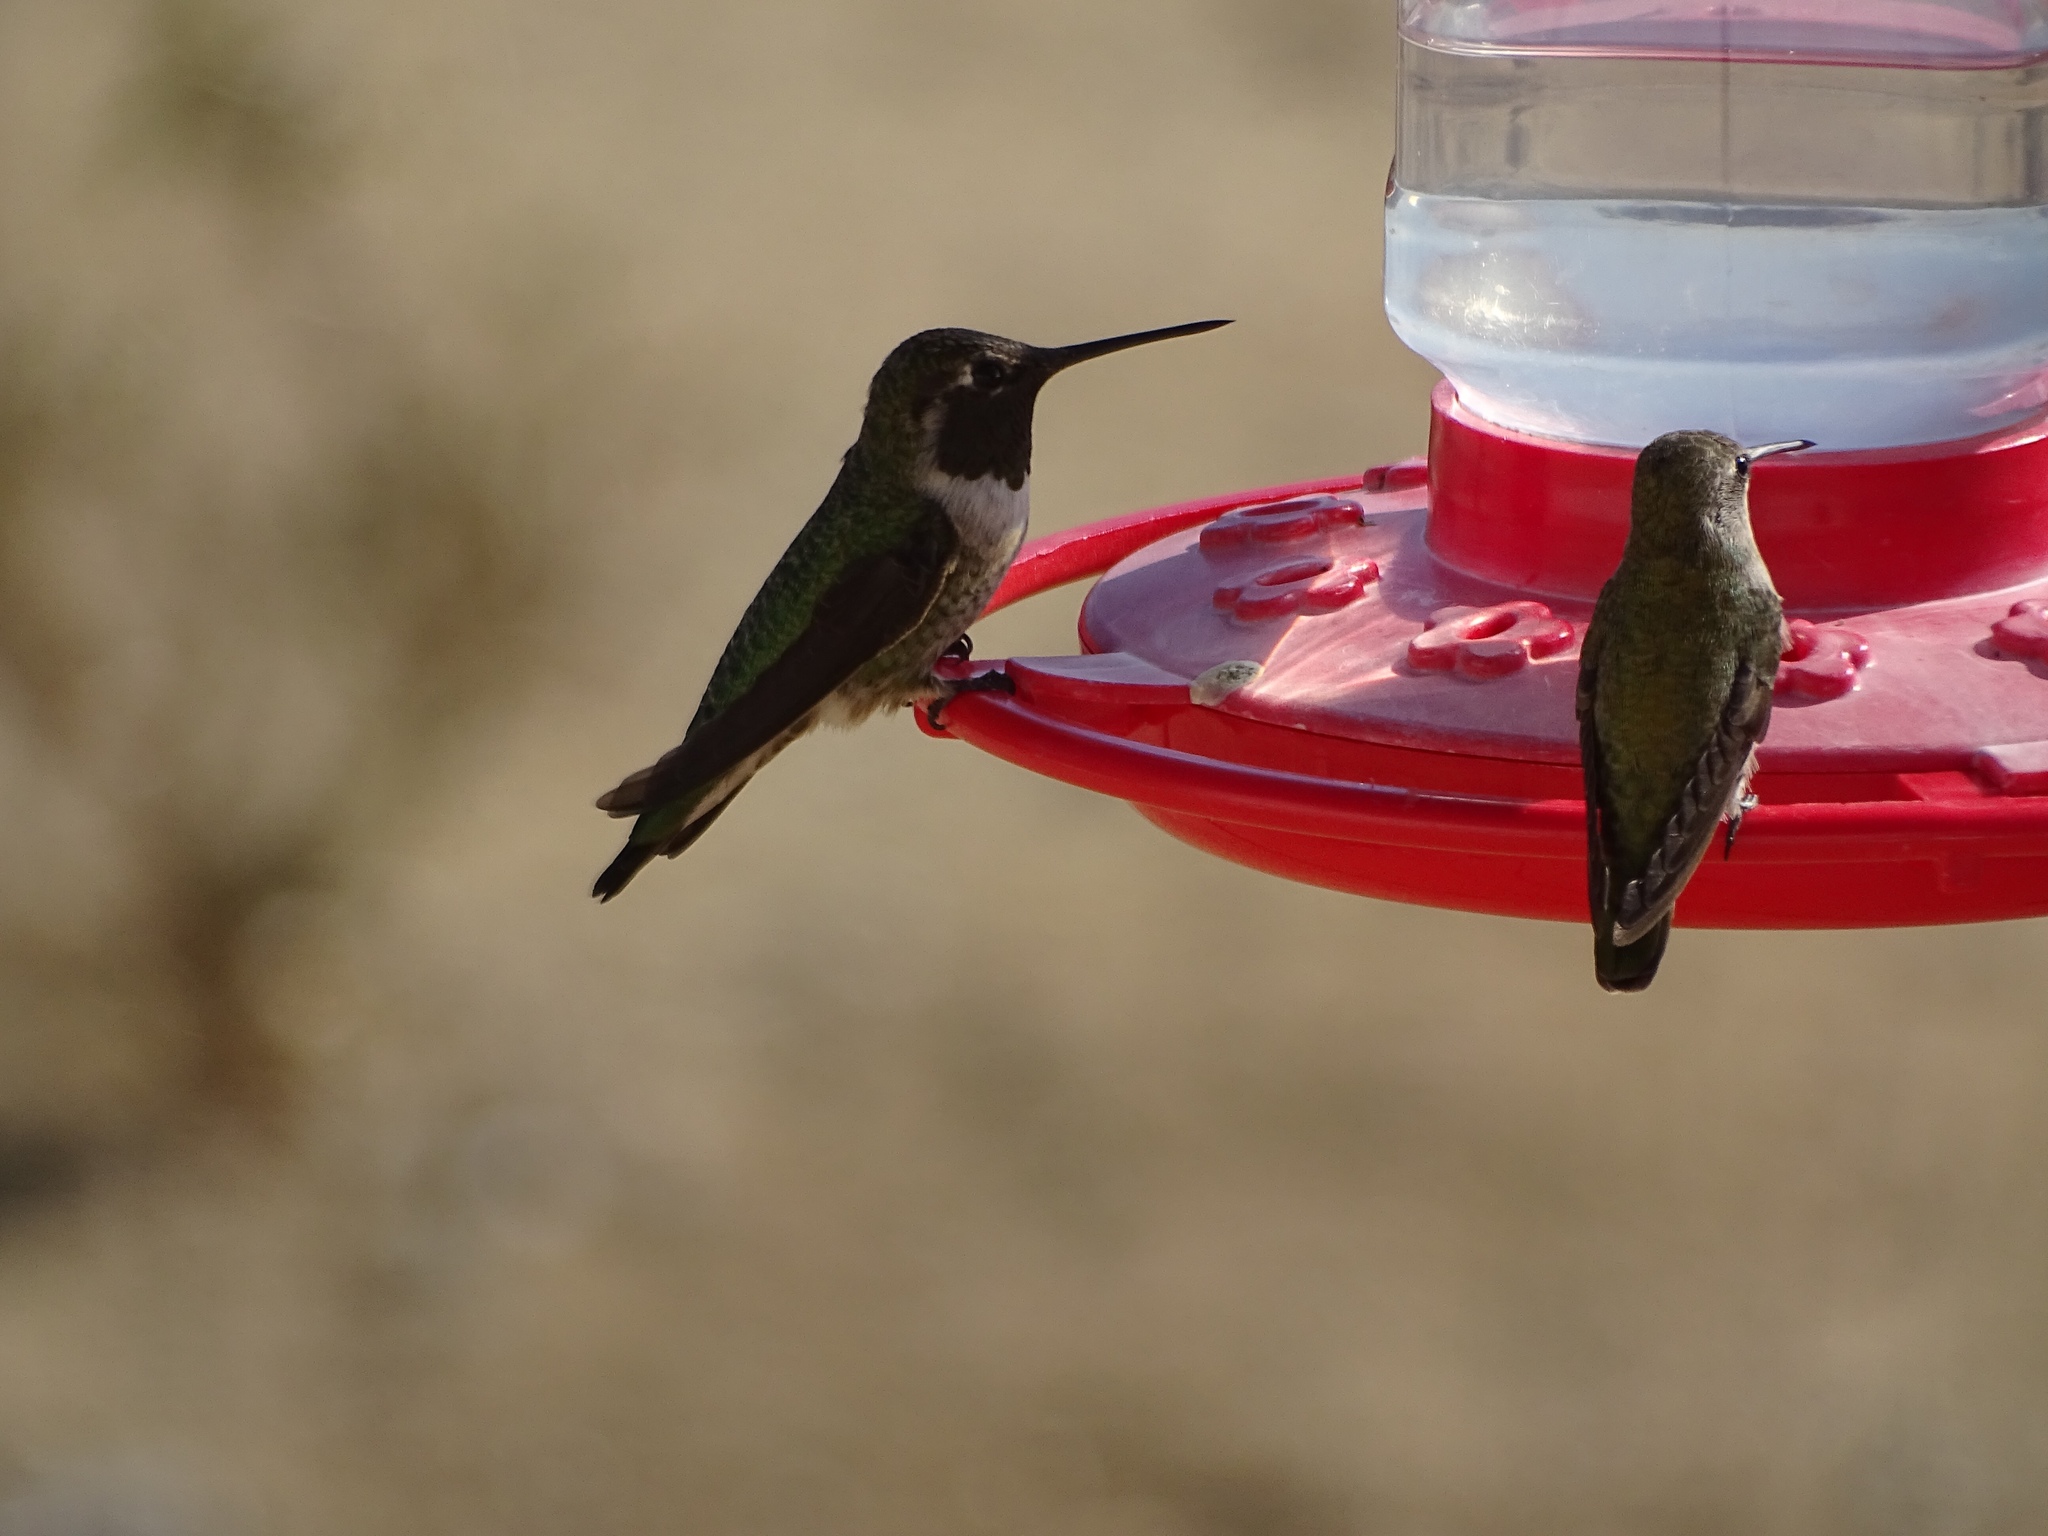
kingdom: Animalia
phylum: Chordata
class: Aves
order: Apodiformes
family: Trochilidae
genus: Calypte
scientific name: Calypte anna
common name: Anna's hummingbird
